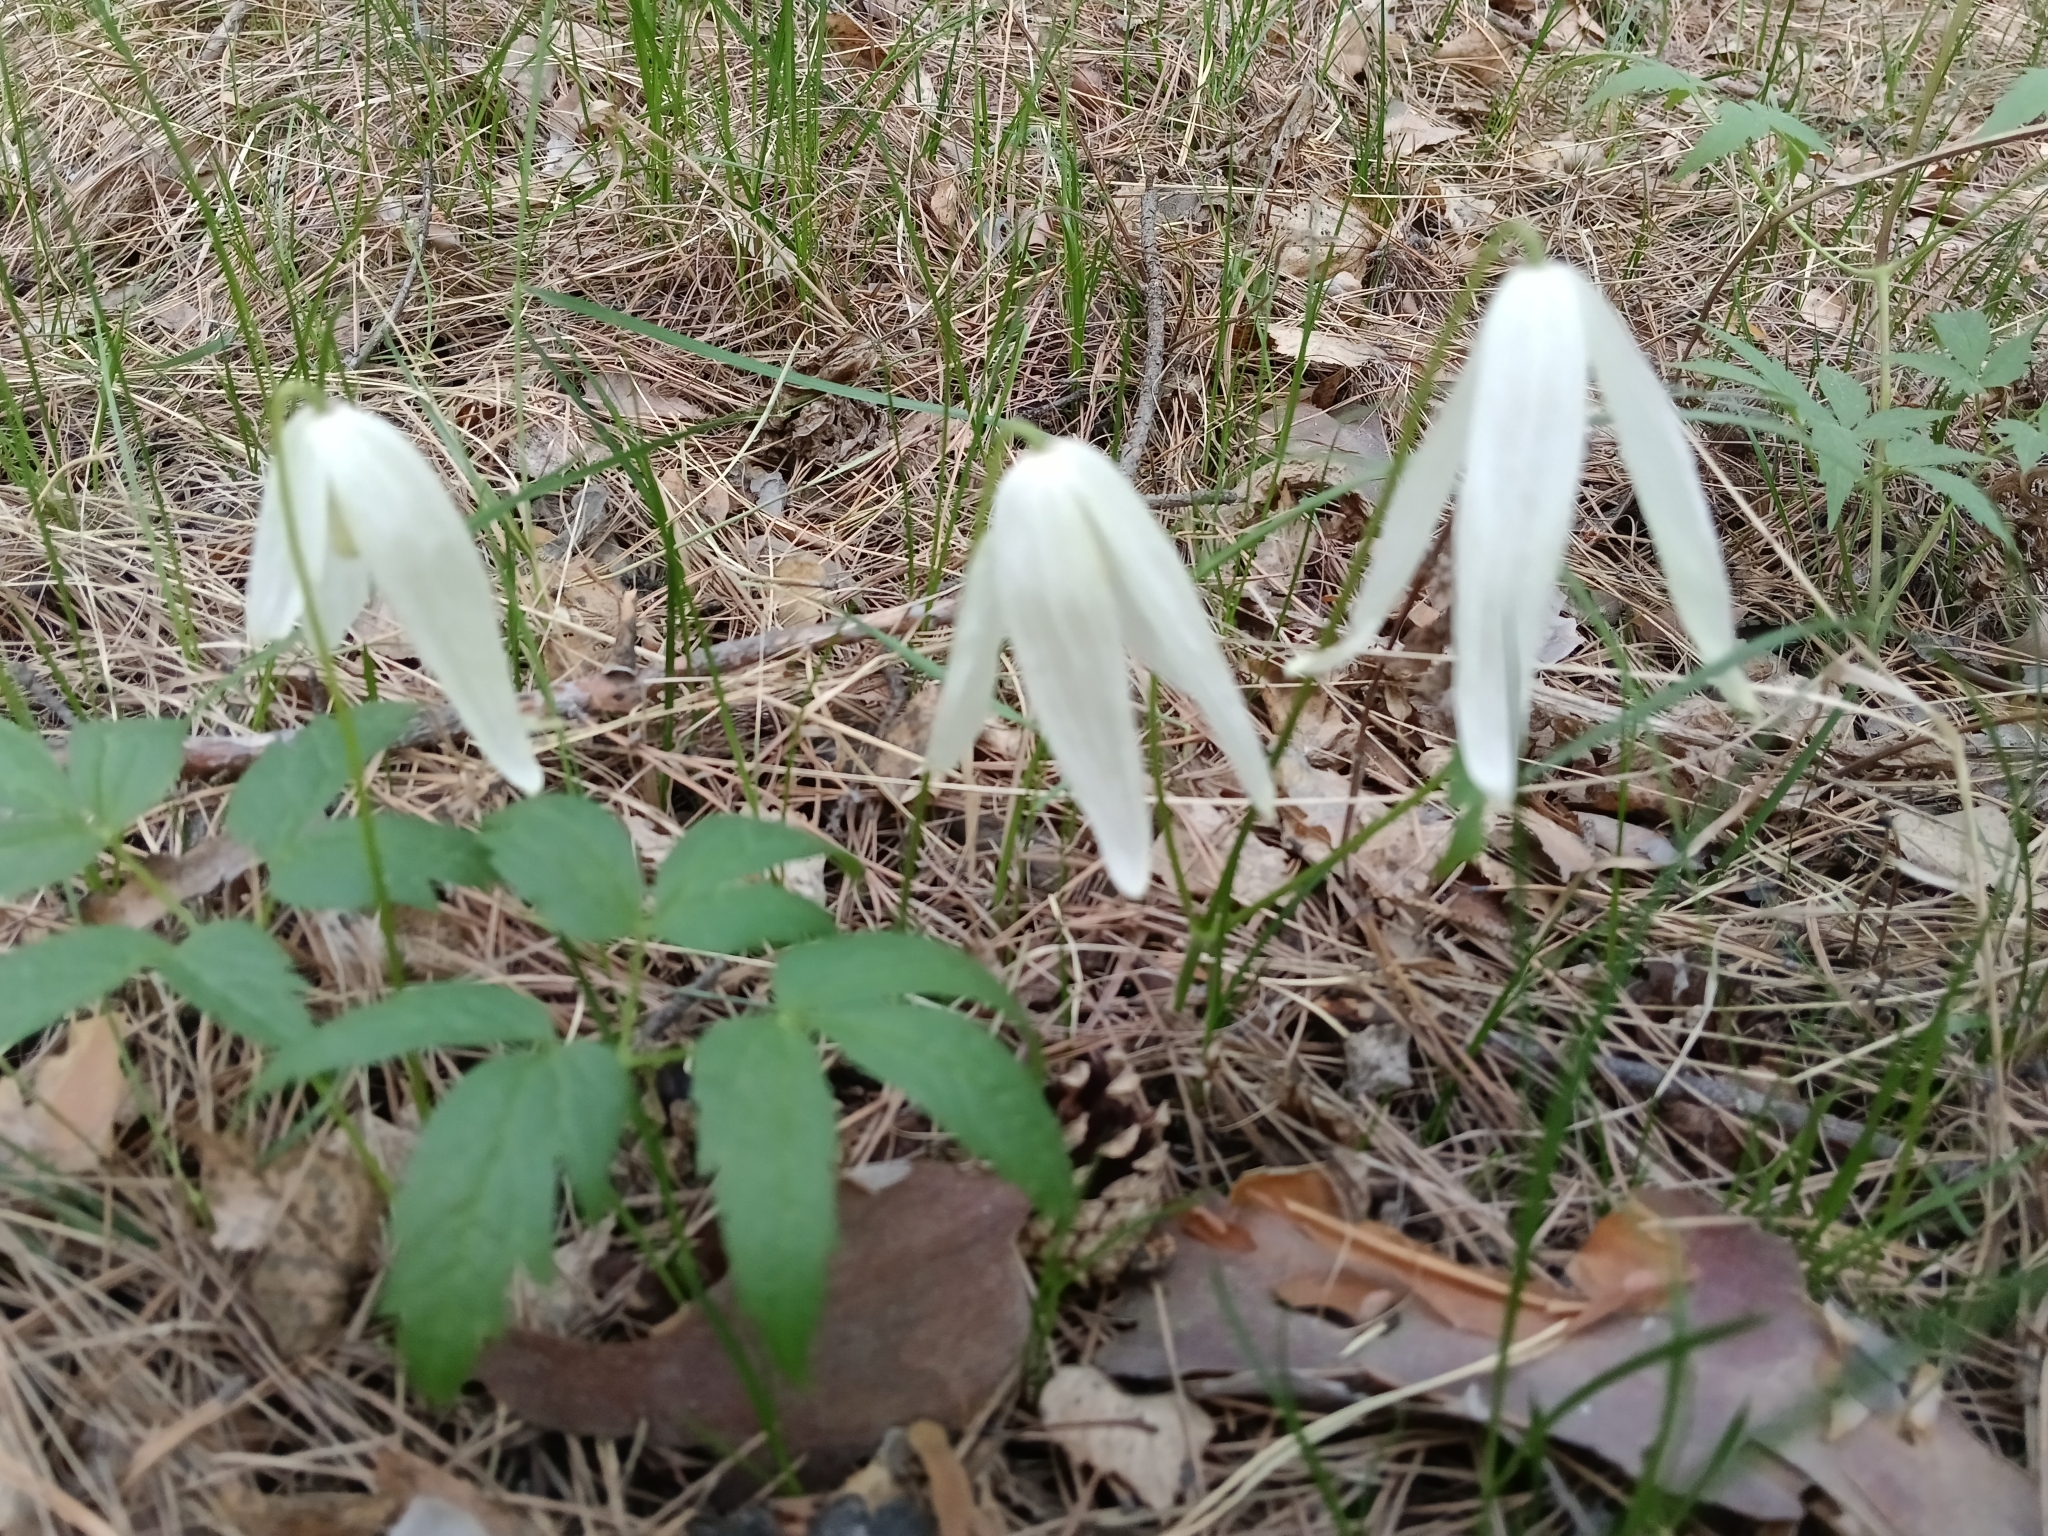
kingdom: Plantae
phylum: Tracheophyta
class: Magnoliopsida
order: Ranunculales
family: Ranunculaceae
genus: Clematis
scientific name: Clematis sibirica
